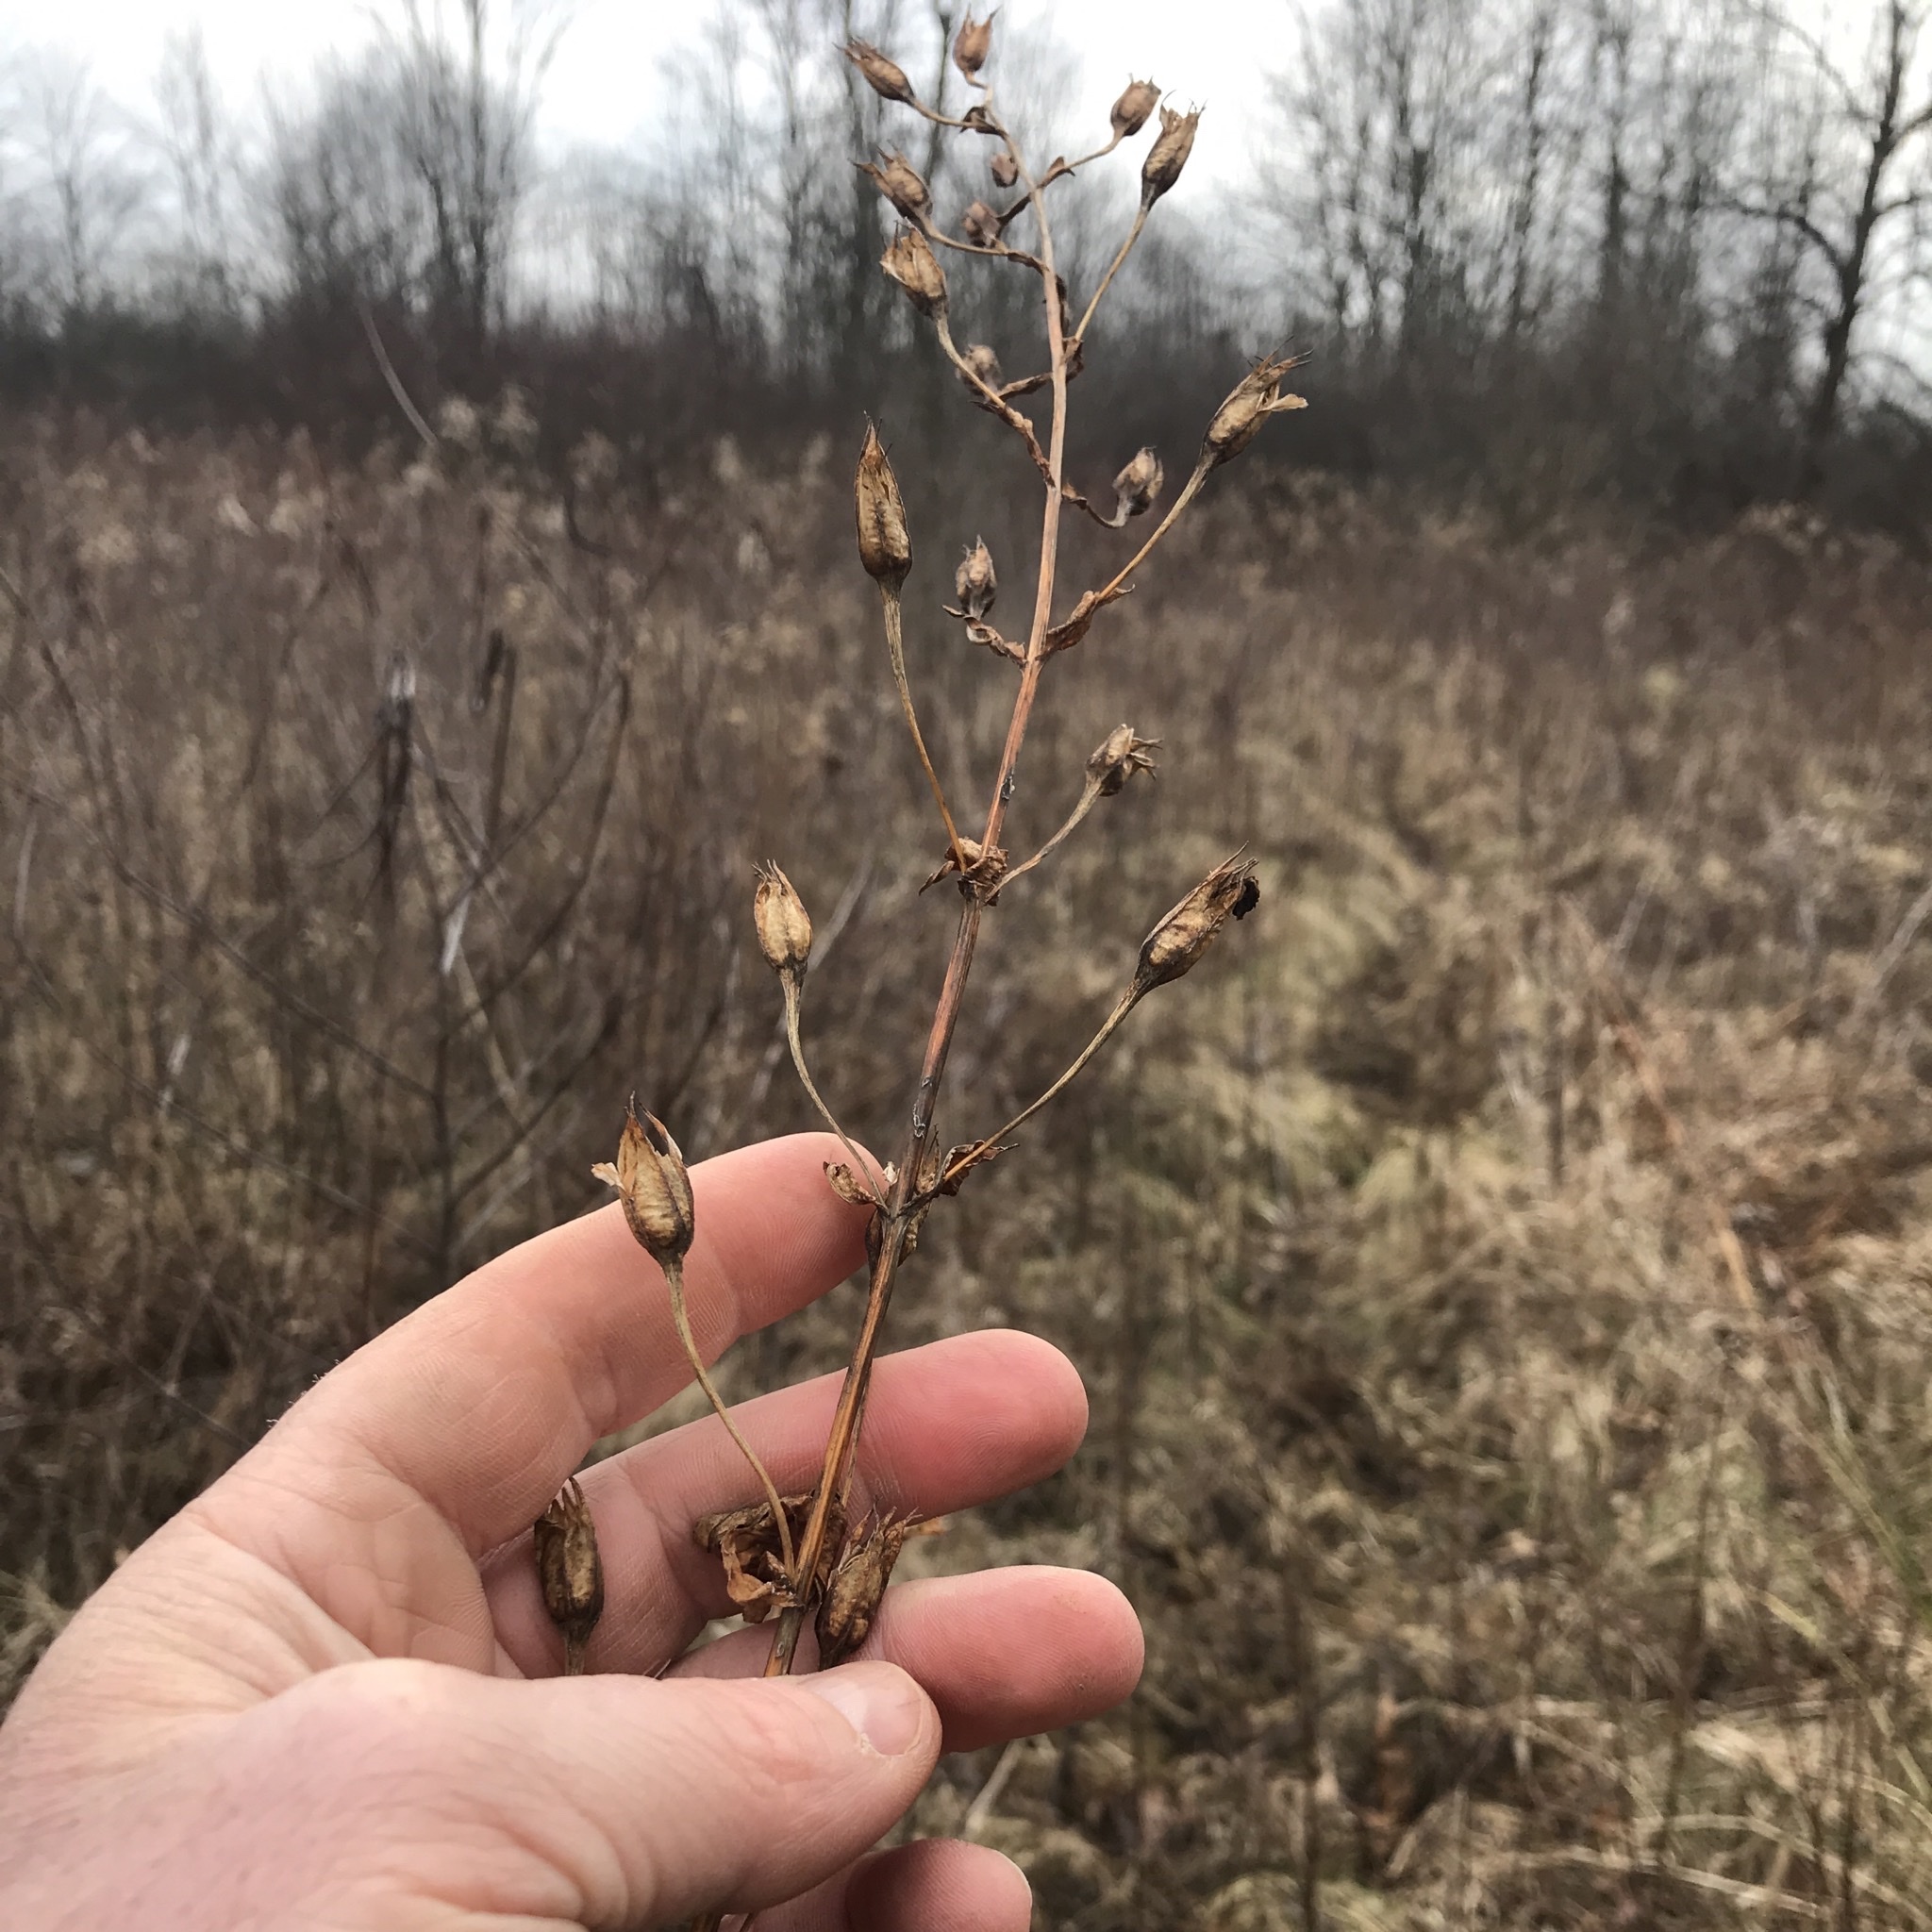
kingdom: Plantae
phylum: Tracheophyta
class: Magnoliopsida
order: Lamiales
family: Phrymaceae
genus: Mimulus
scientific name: Mimulus ringens
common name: Allegheny monkeyflower
